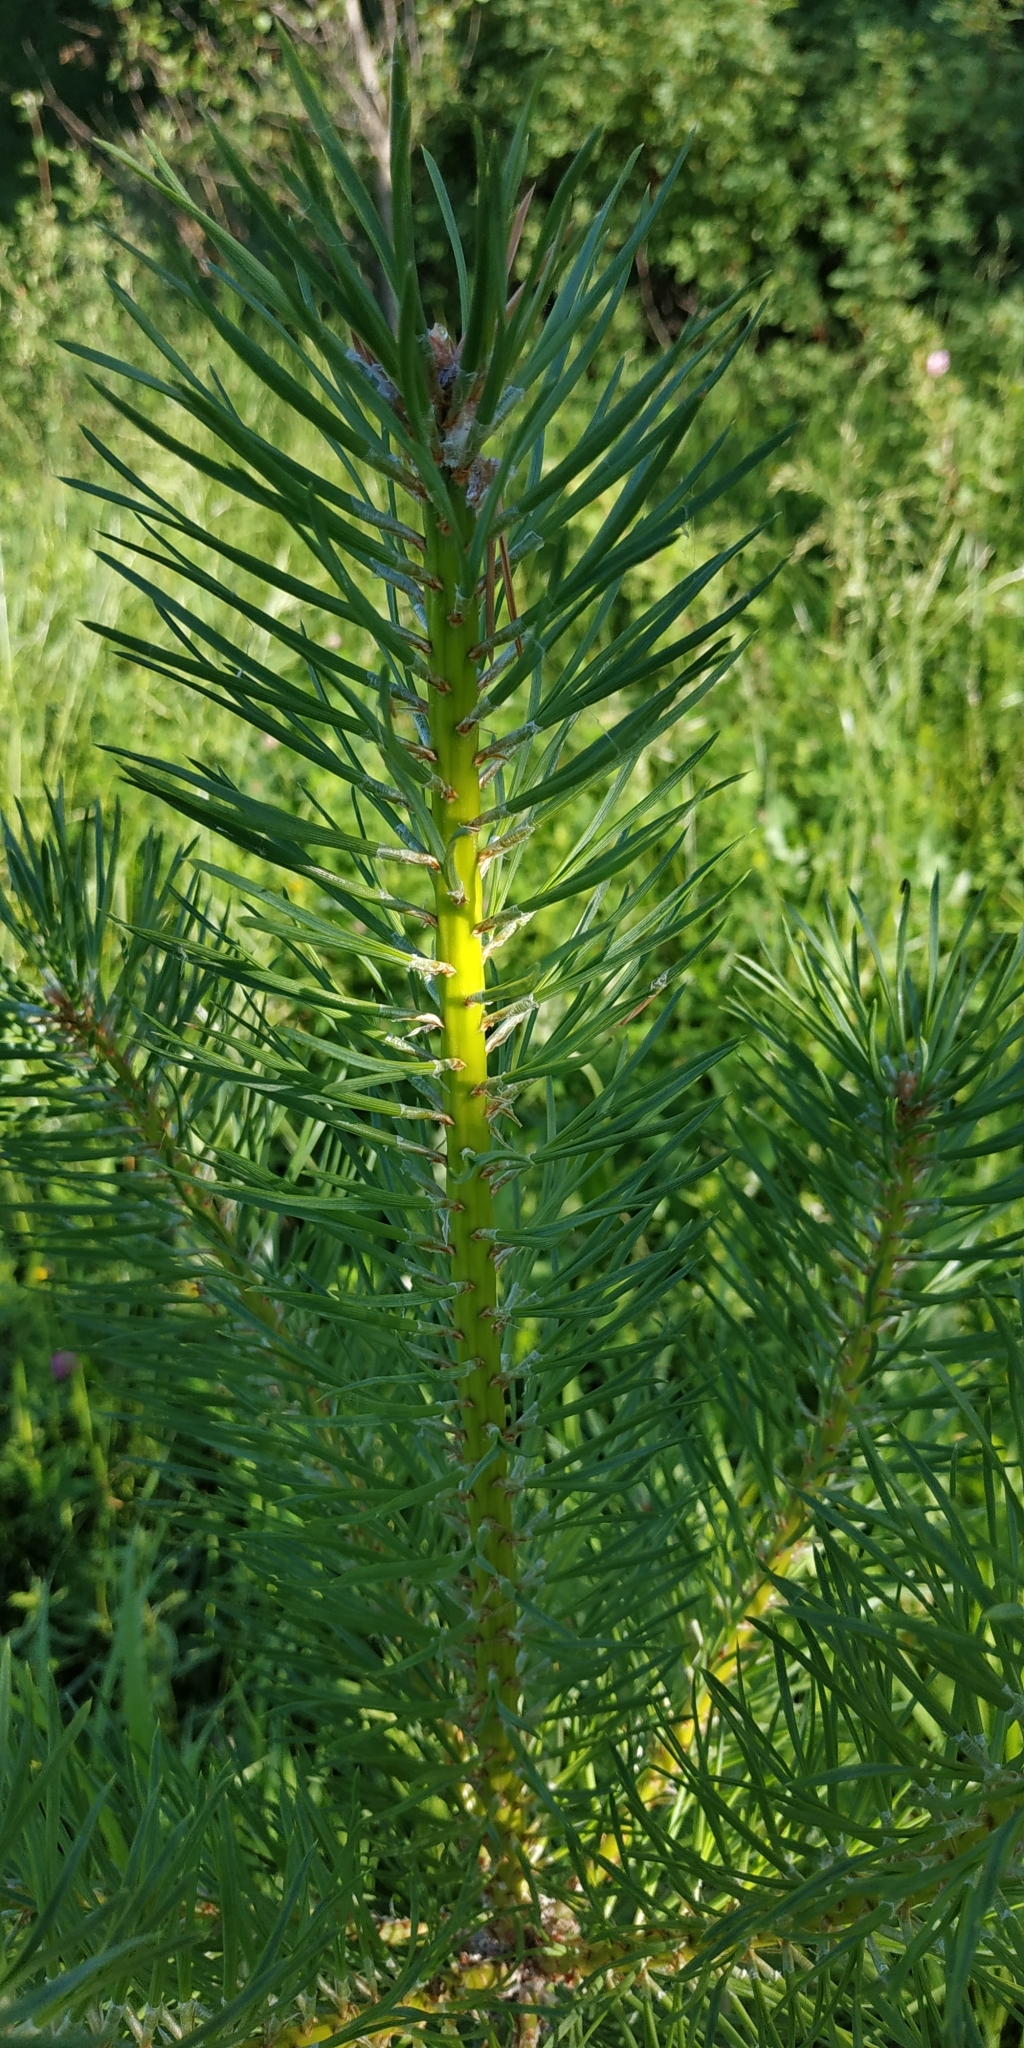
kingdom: Plantae
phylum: Tracheophyta
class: Pinopsida
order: Pinales
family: Pinaceae
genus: Pinus
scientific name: Pinus sylvestris
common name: Scots pine
